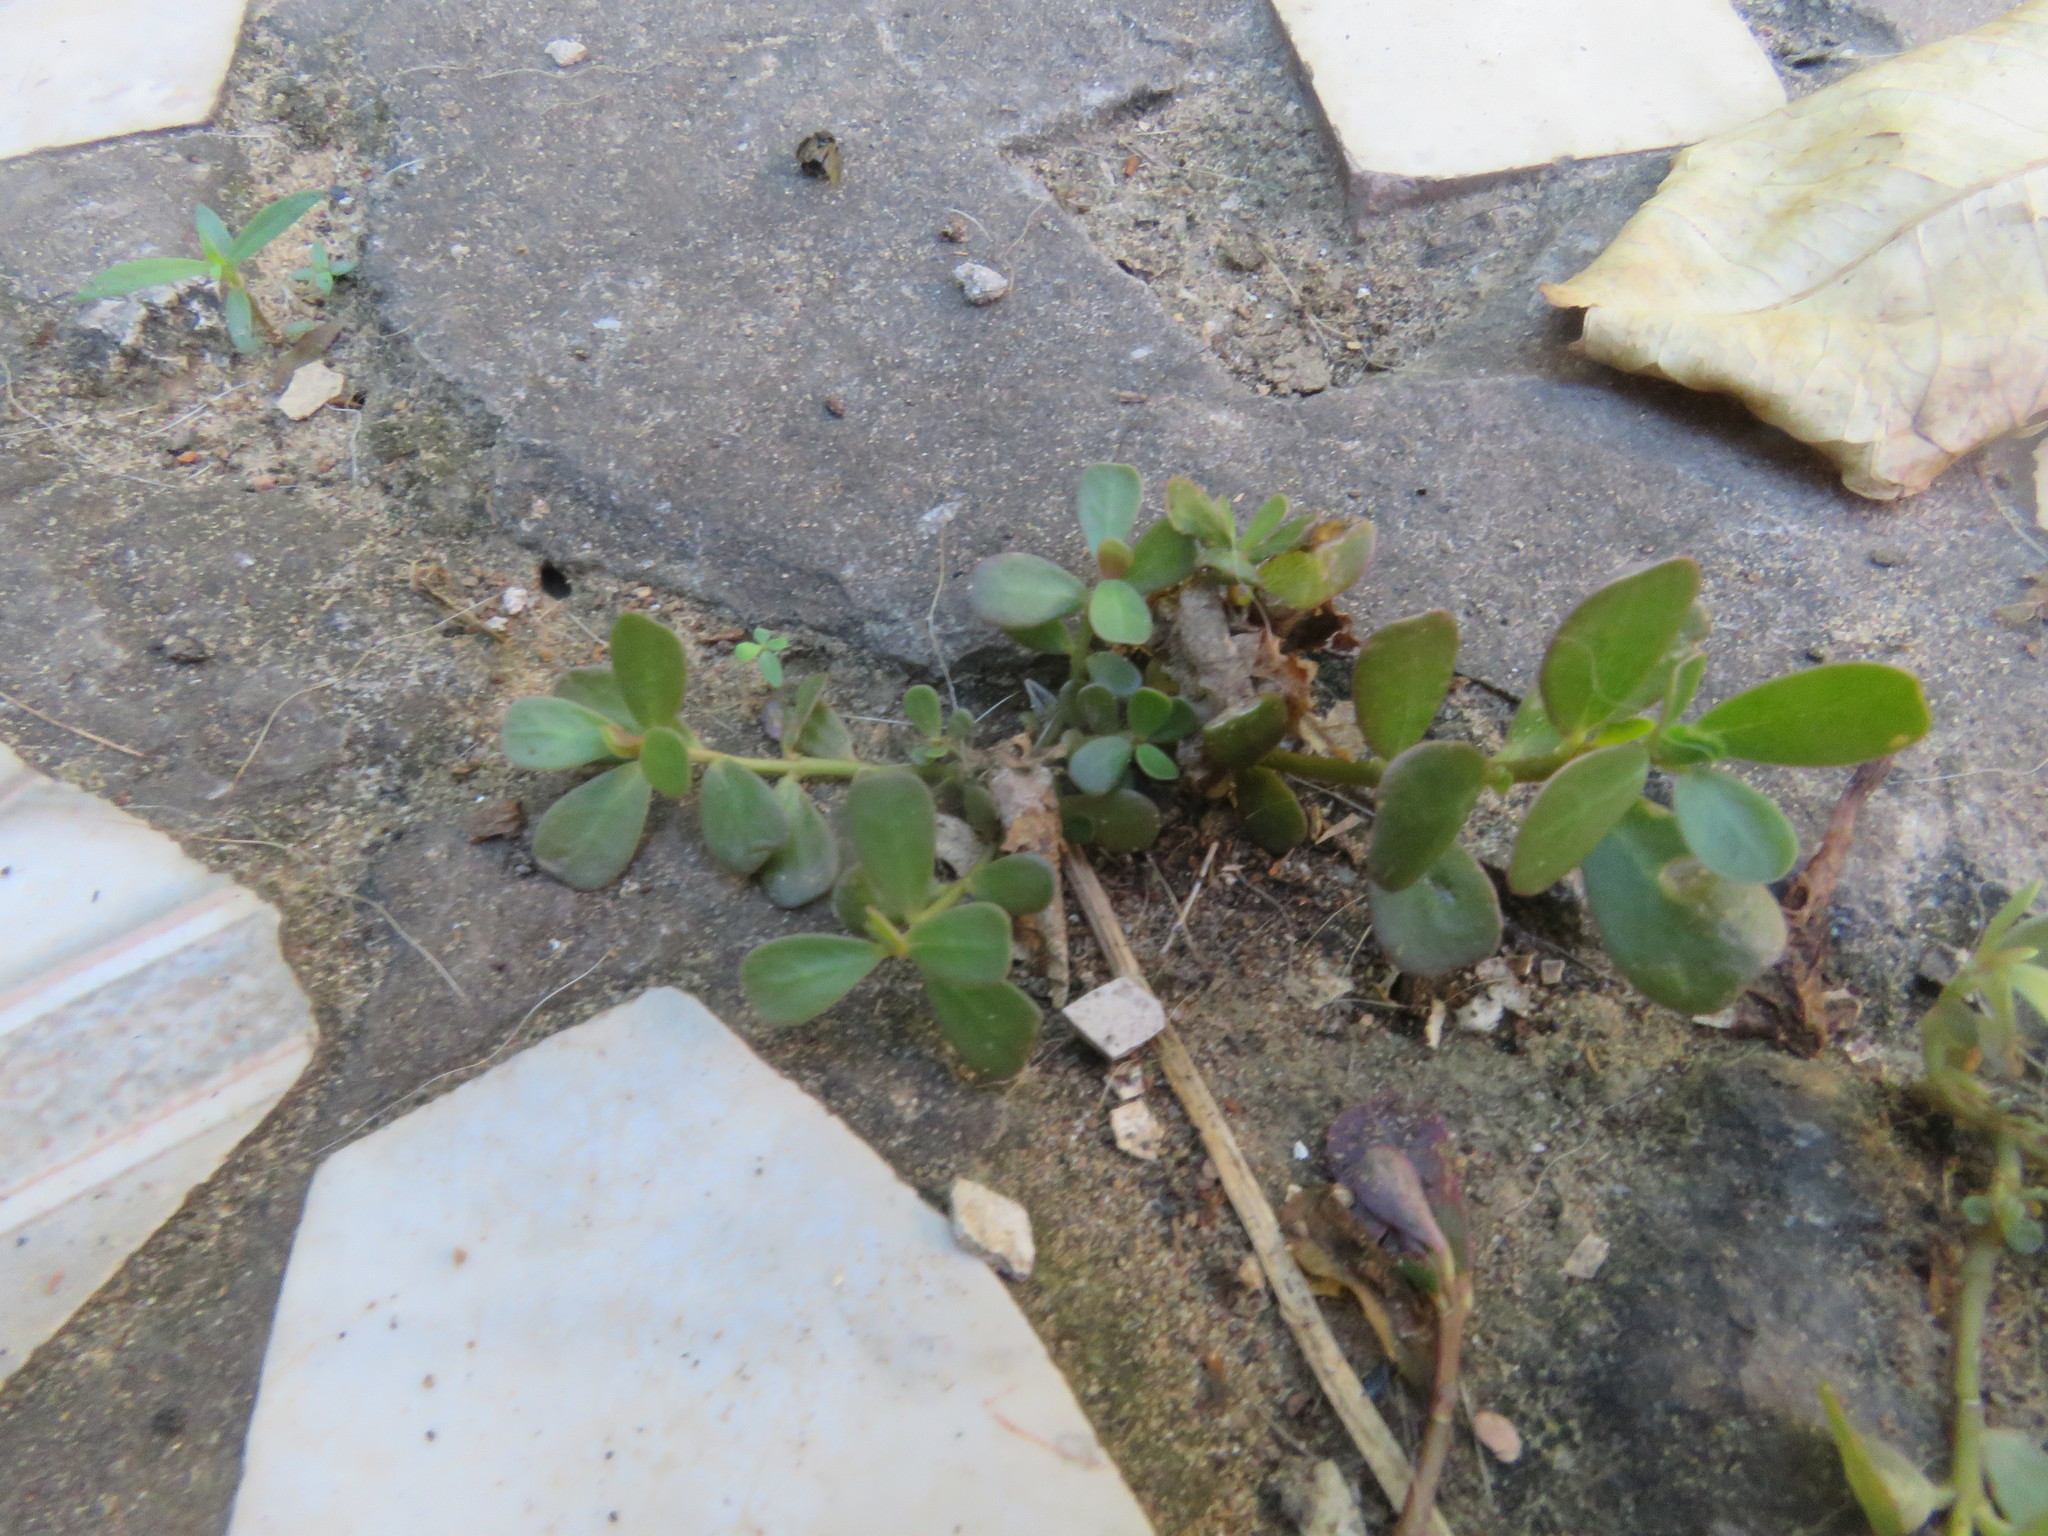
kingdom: Plantae
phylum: Tracheophyta
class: Magnoliopsida
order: Caryophyllales
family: Portulacaceae
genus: Portulaca
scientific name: Portulaca oleracea
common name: Common purslane
